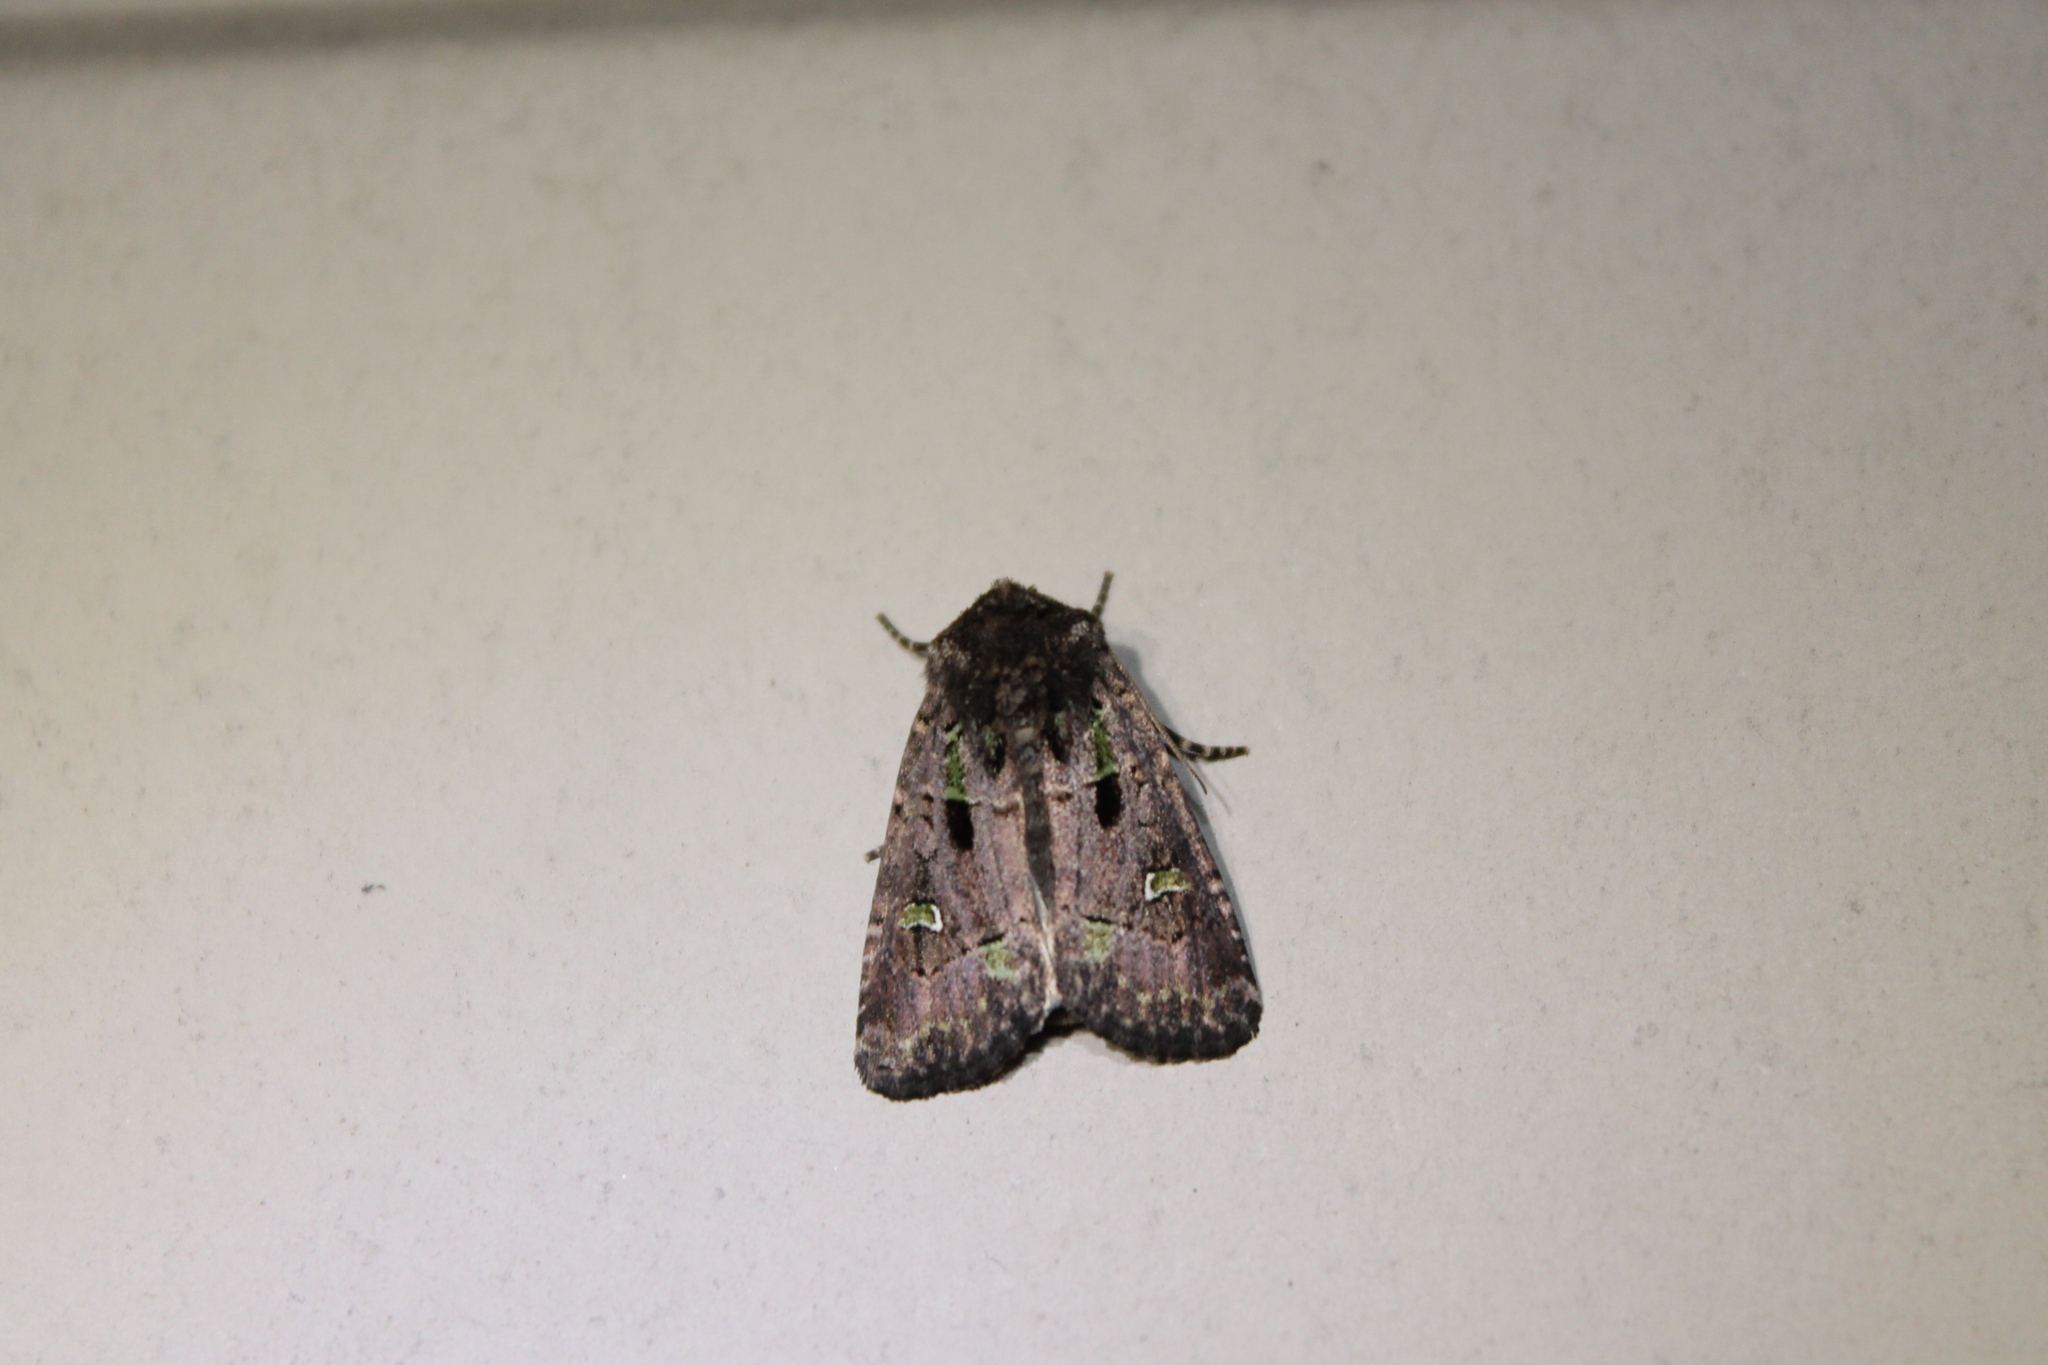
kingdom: Animalia
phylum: Arthropoda
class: Insecta
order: Lepidoptera
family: Noctuidae
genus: Lacinipolia
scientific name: Lacinipolia renigera
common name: Kidney-spotted minor
